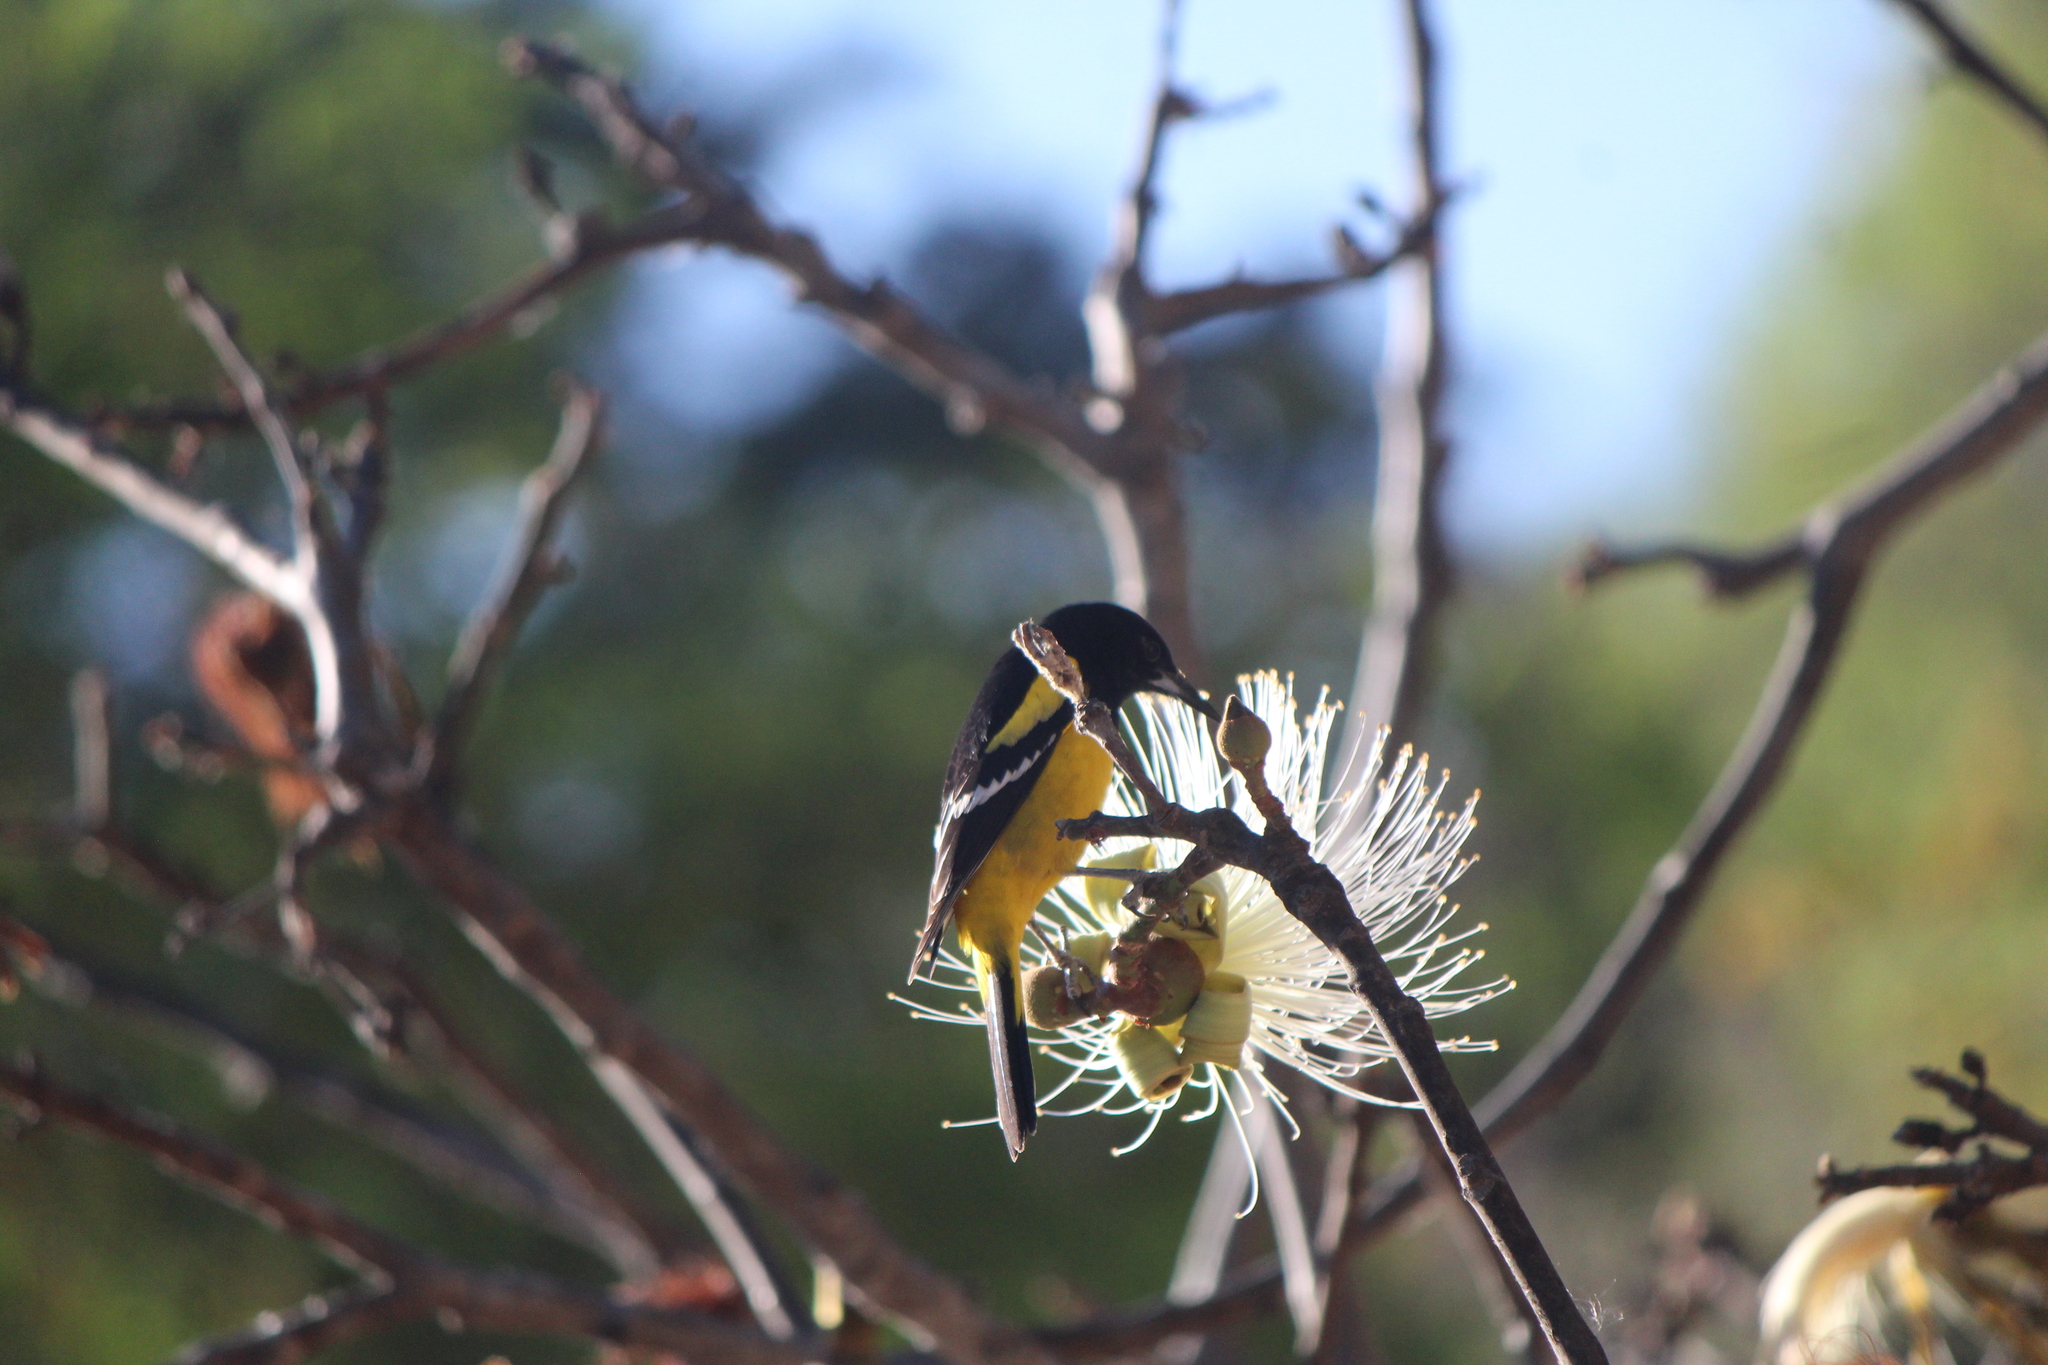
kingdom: Animalia
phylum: Chordata
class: Aves
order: Passeriformes
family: Icteridae
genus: Icterus
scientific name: Icterus parisorum
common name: Scott's oriole
